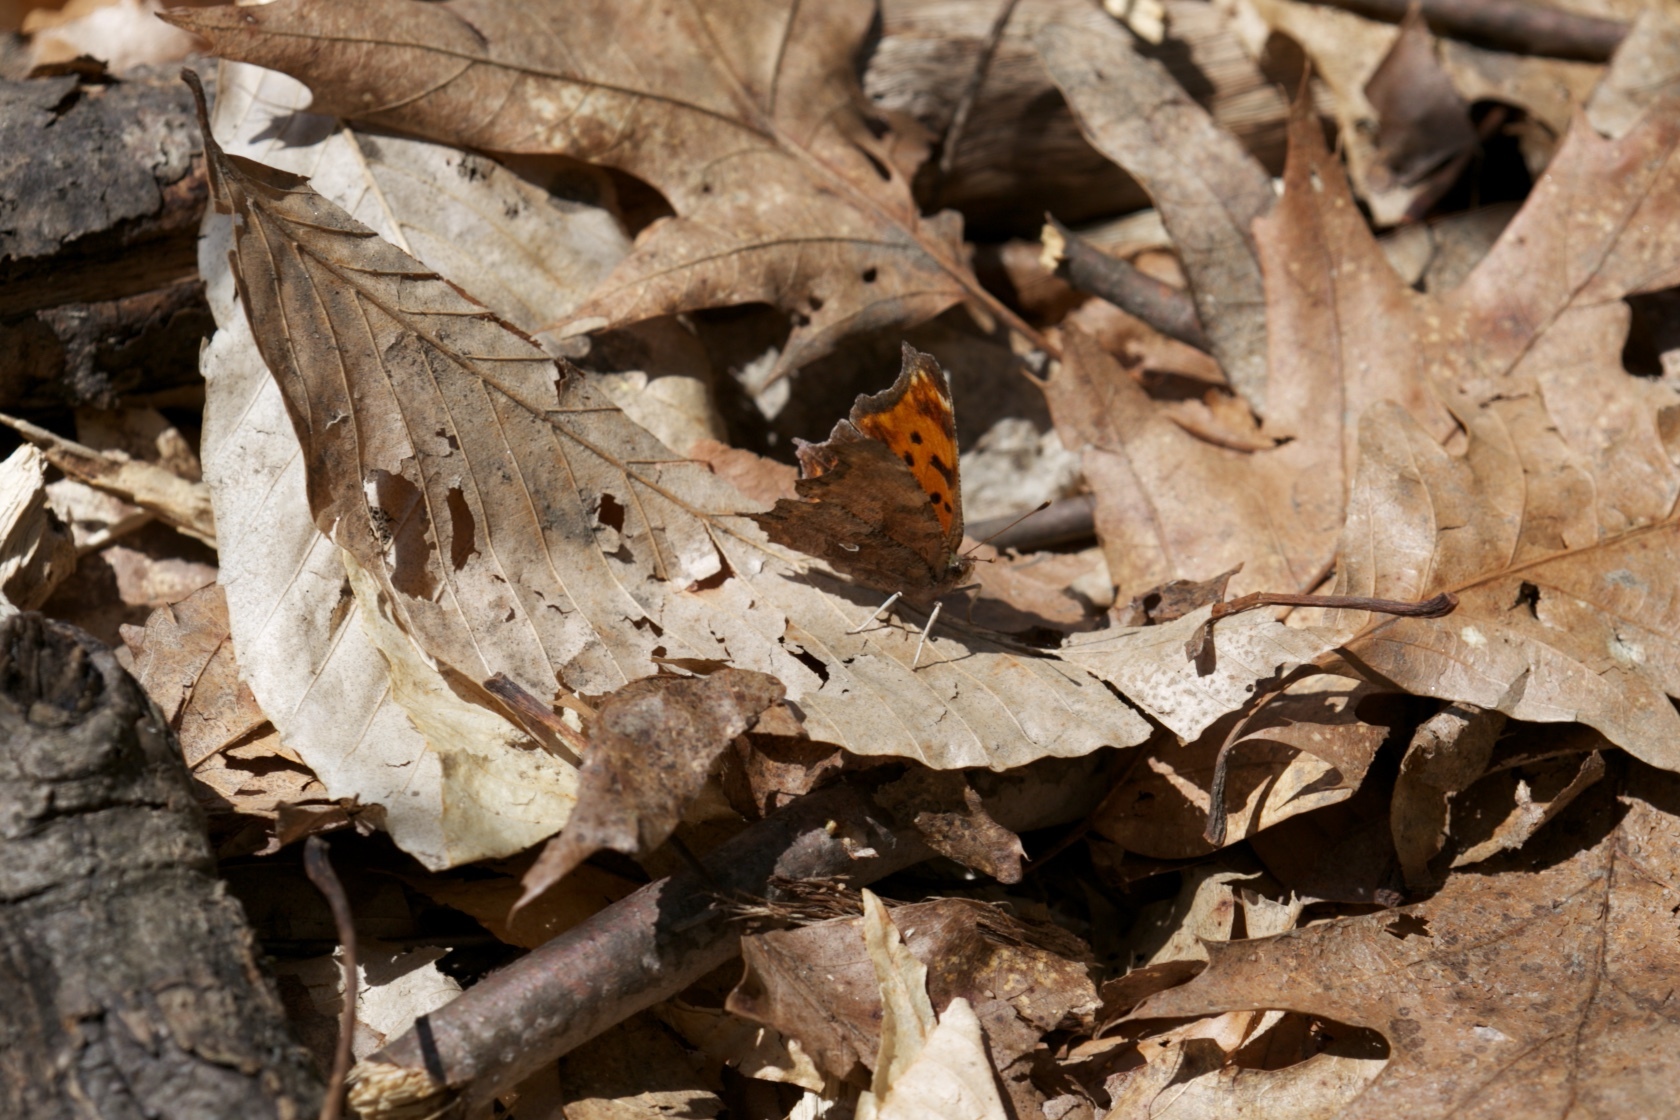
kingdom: Animalia
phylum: Arthropoda
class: Insecta
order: Lepidoptera
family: Nymphalidae
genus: Polygonia
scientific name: Polygonia comma
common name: Eastern comma
